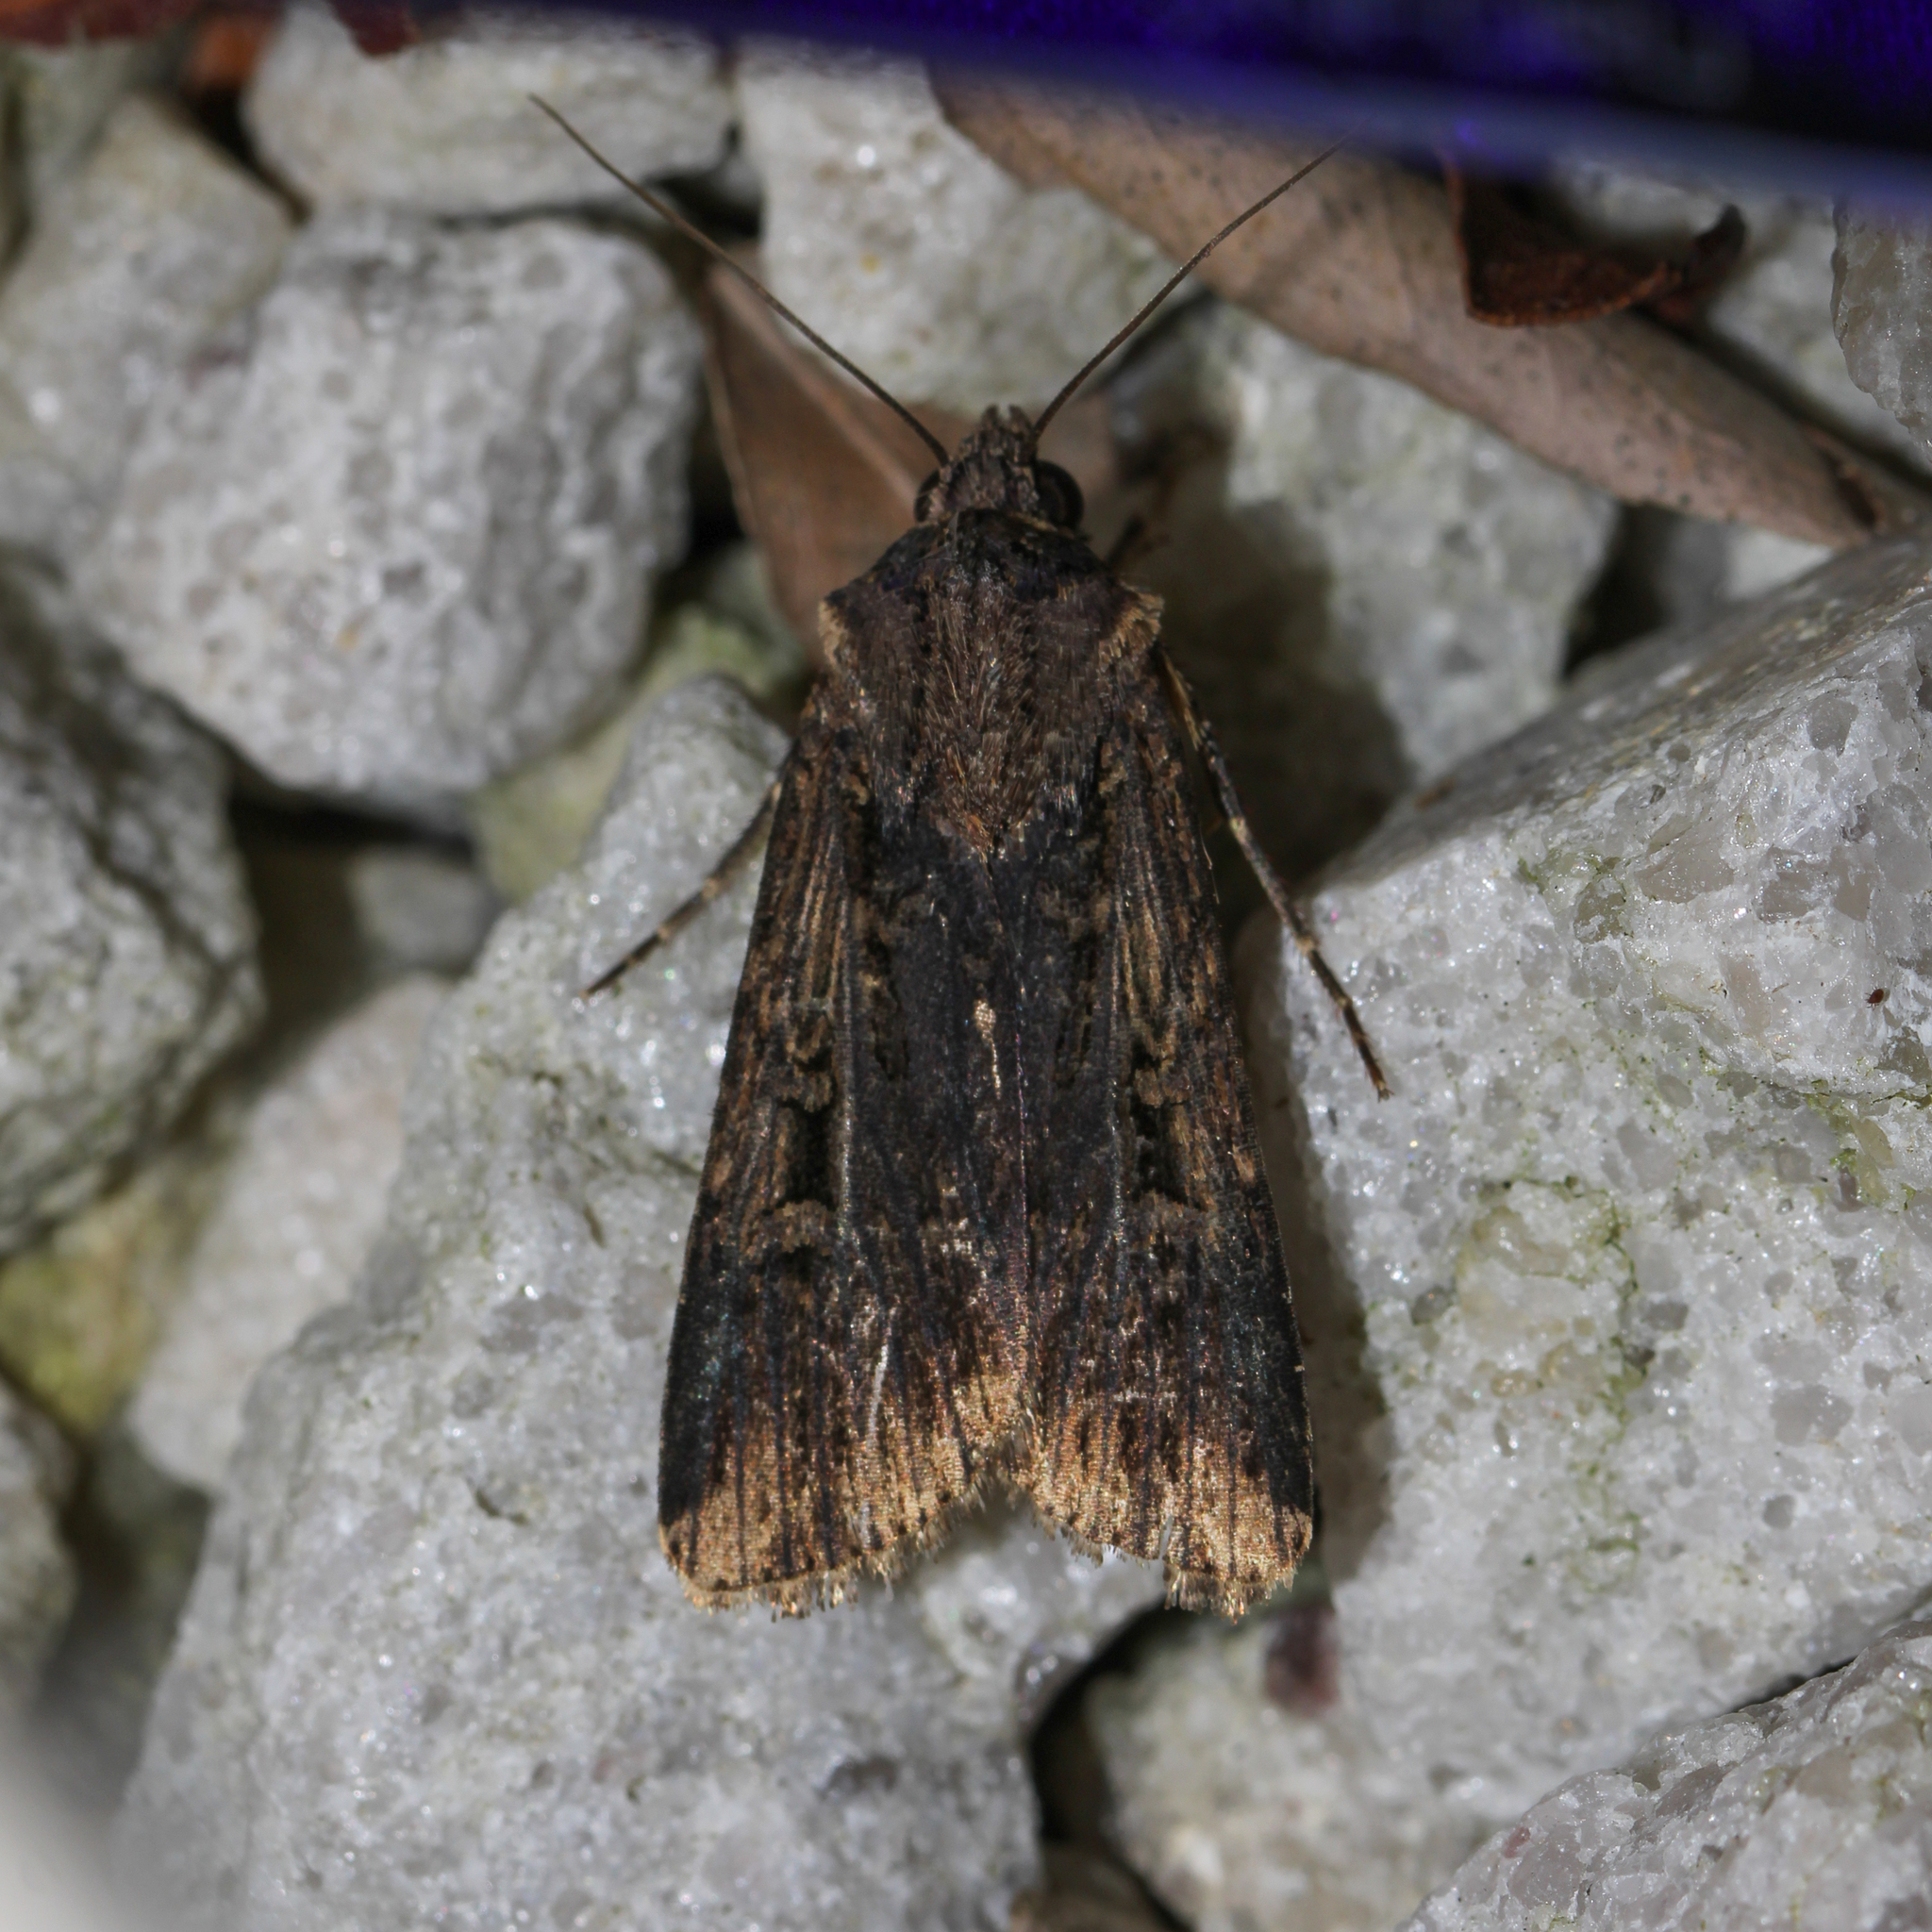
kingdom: Animalia
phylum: Arthropoda
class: Insecta
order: Lepidoptera
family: Noctuidae
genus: Feltia
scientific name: Feltia subterranea
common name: Granulate cutworm
